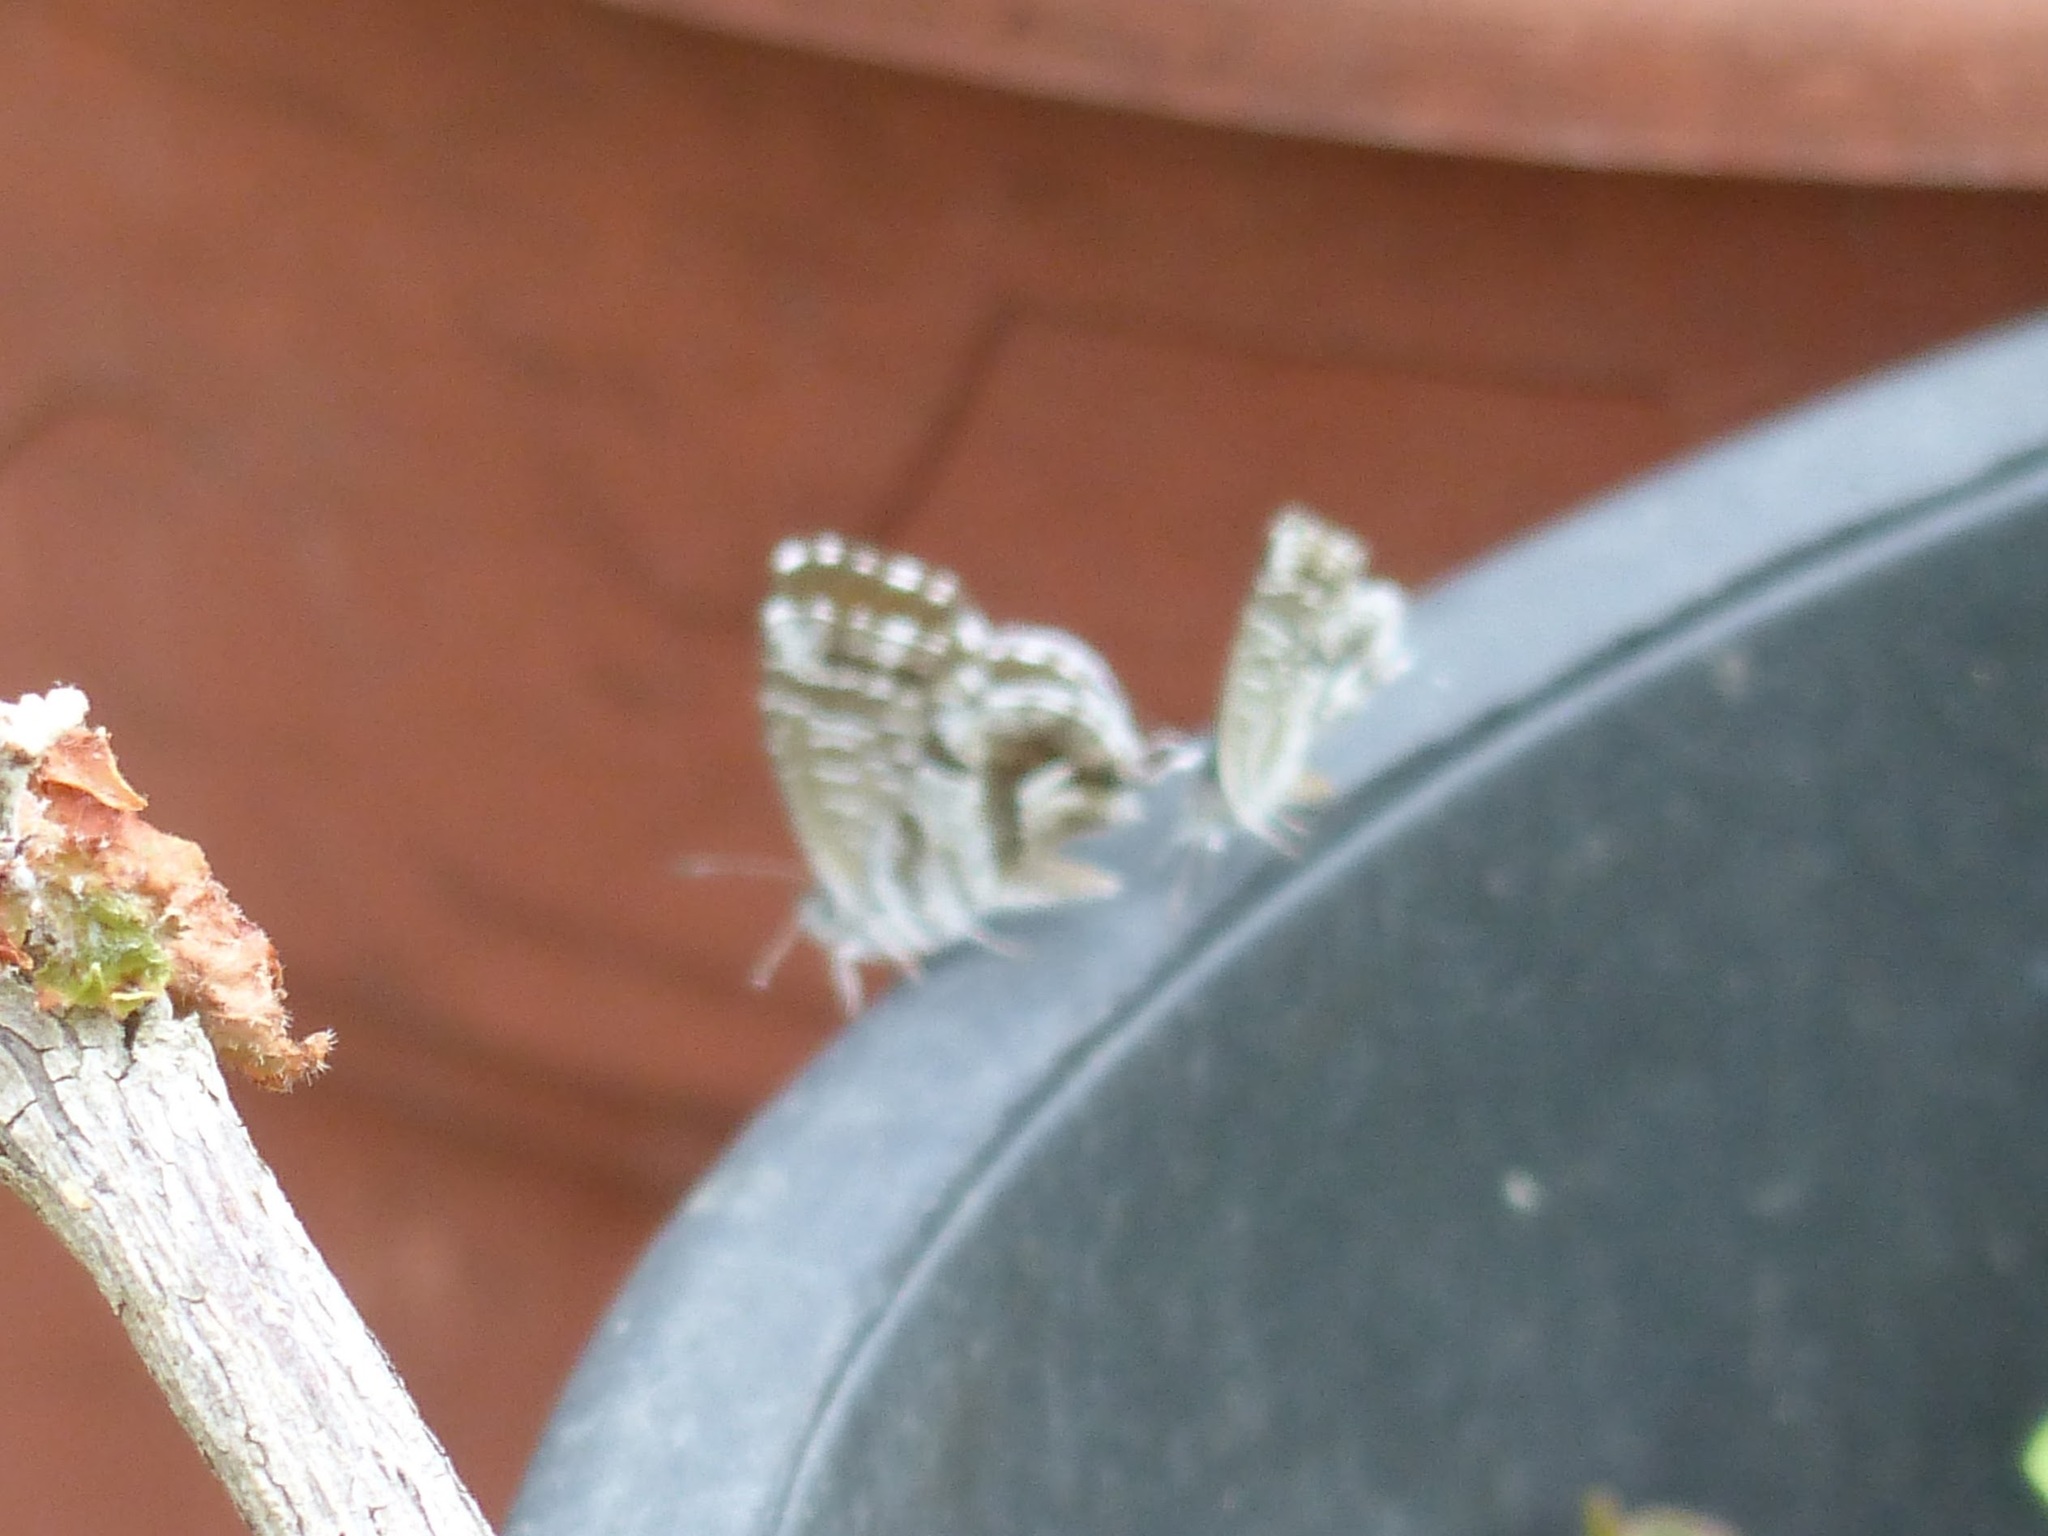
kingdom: Animalia
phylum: Arthropoda
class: Insecta
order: Lepidoptera
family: Lycaenidae
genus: Cacyreus
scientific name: Cacyreus marshalli
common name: Geranium bronze
